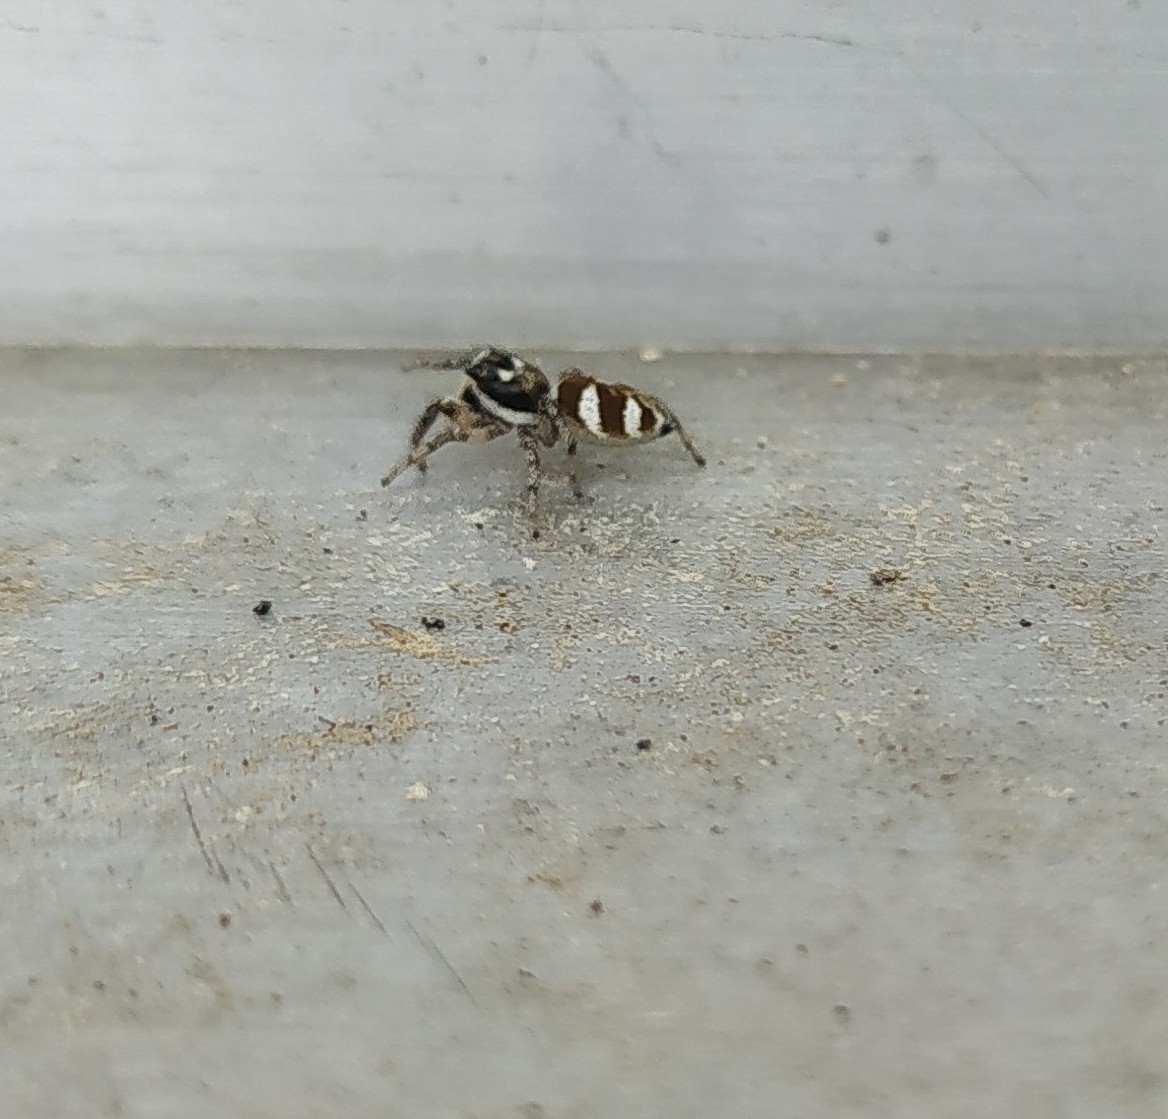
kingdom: Animalia
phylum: Arthropoda
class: Arachnida
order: Araneae
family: Salticidae
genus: Salticus
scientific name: Salticus scenicus
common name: Zebra jumper
